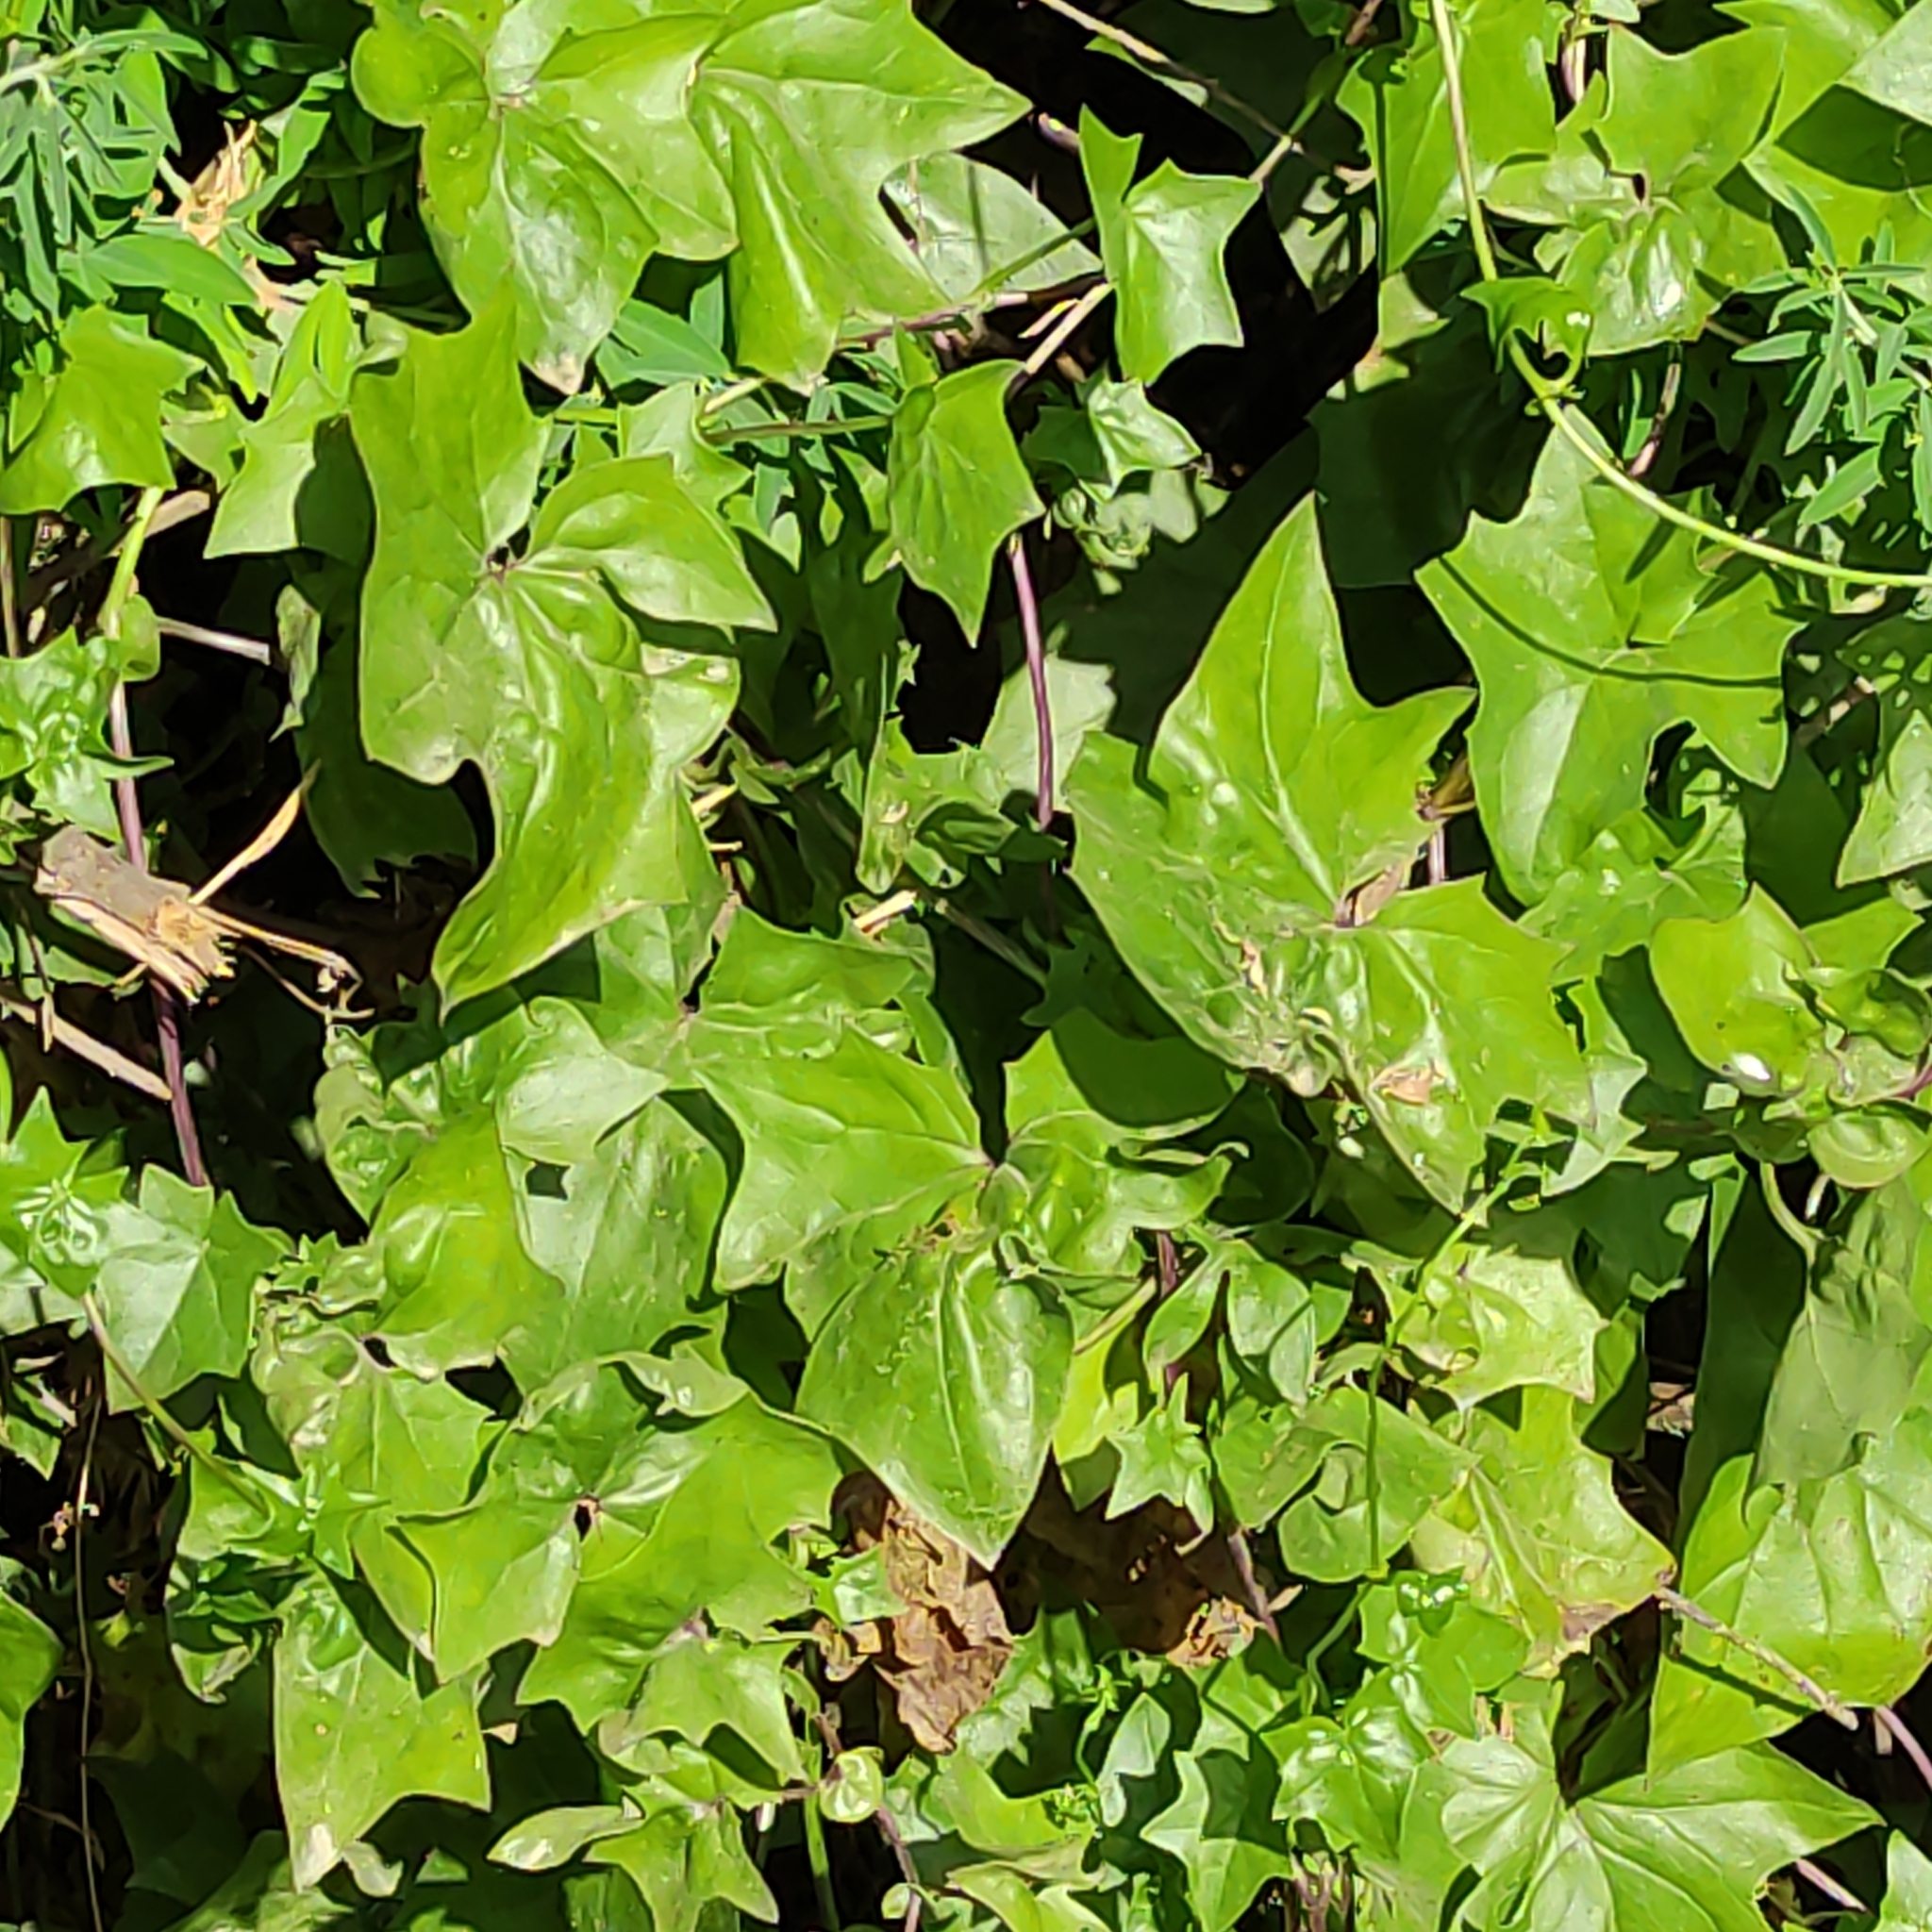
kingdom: Plantae
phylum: Tracheophyta
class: Magnoliopsida
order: Asterales
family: Asteraceae
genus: Delairea
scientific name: Delairea odorata
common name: Cape-ivy
